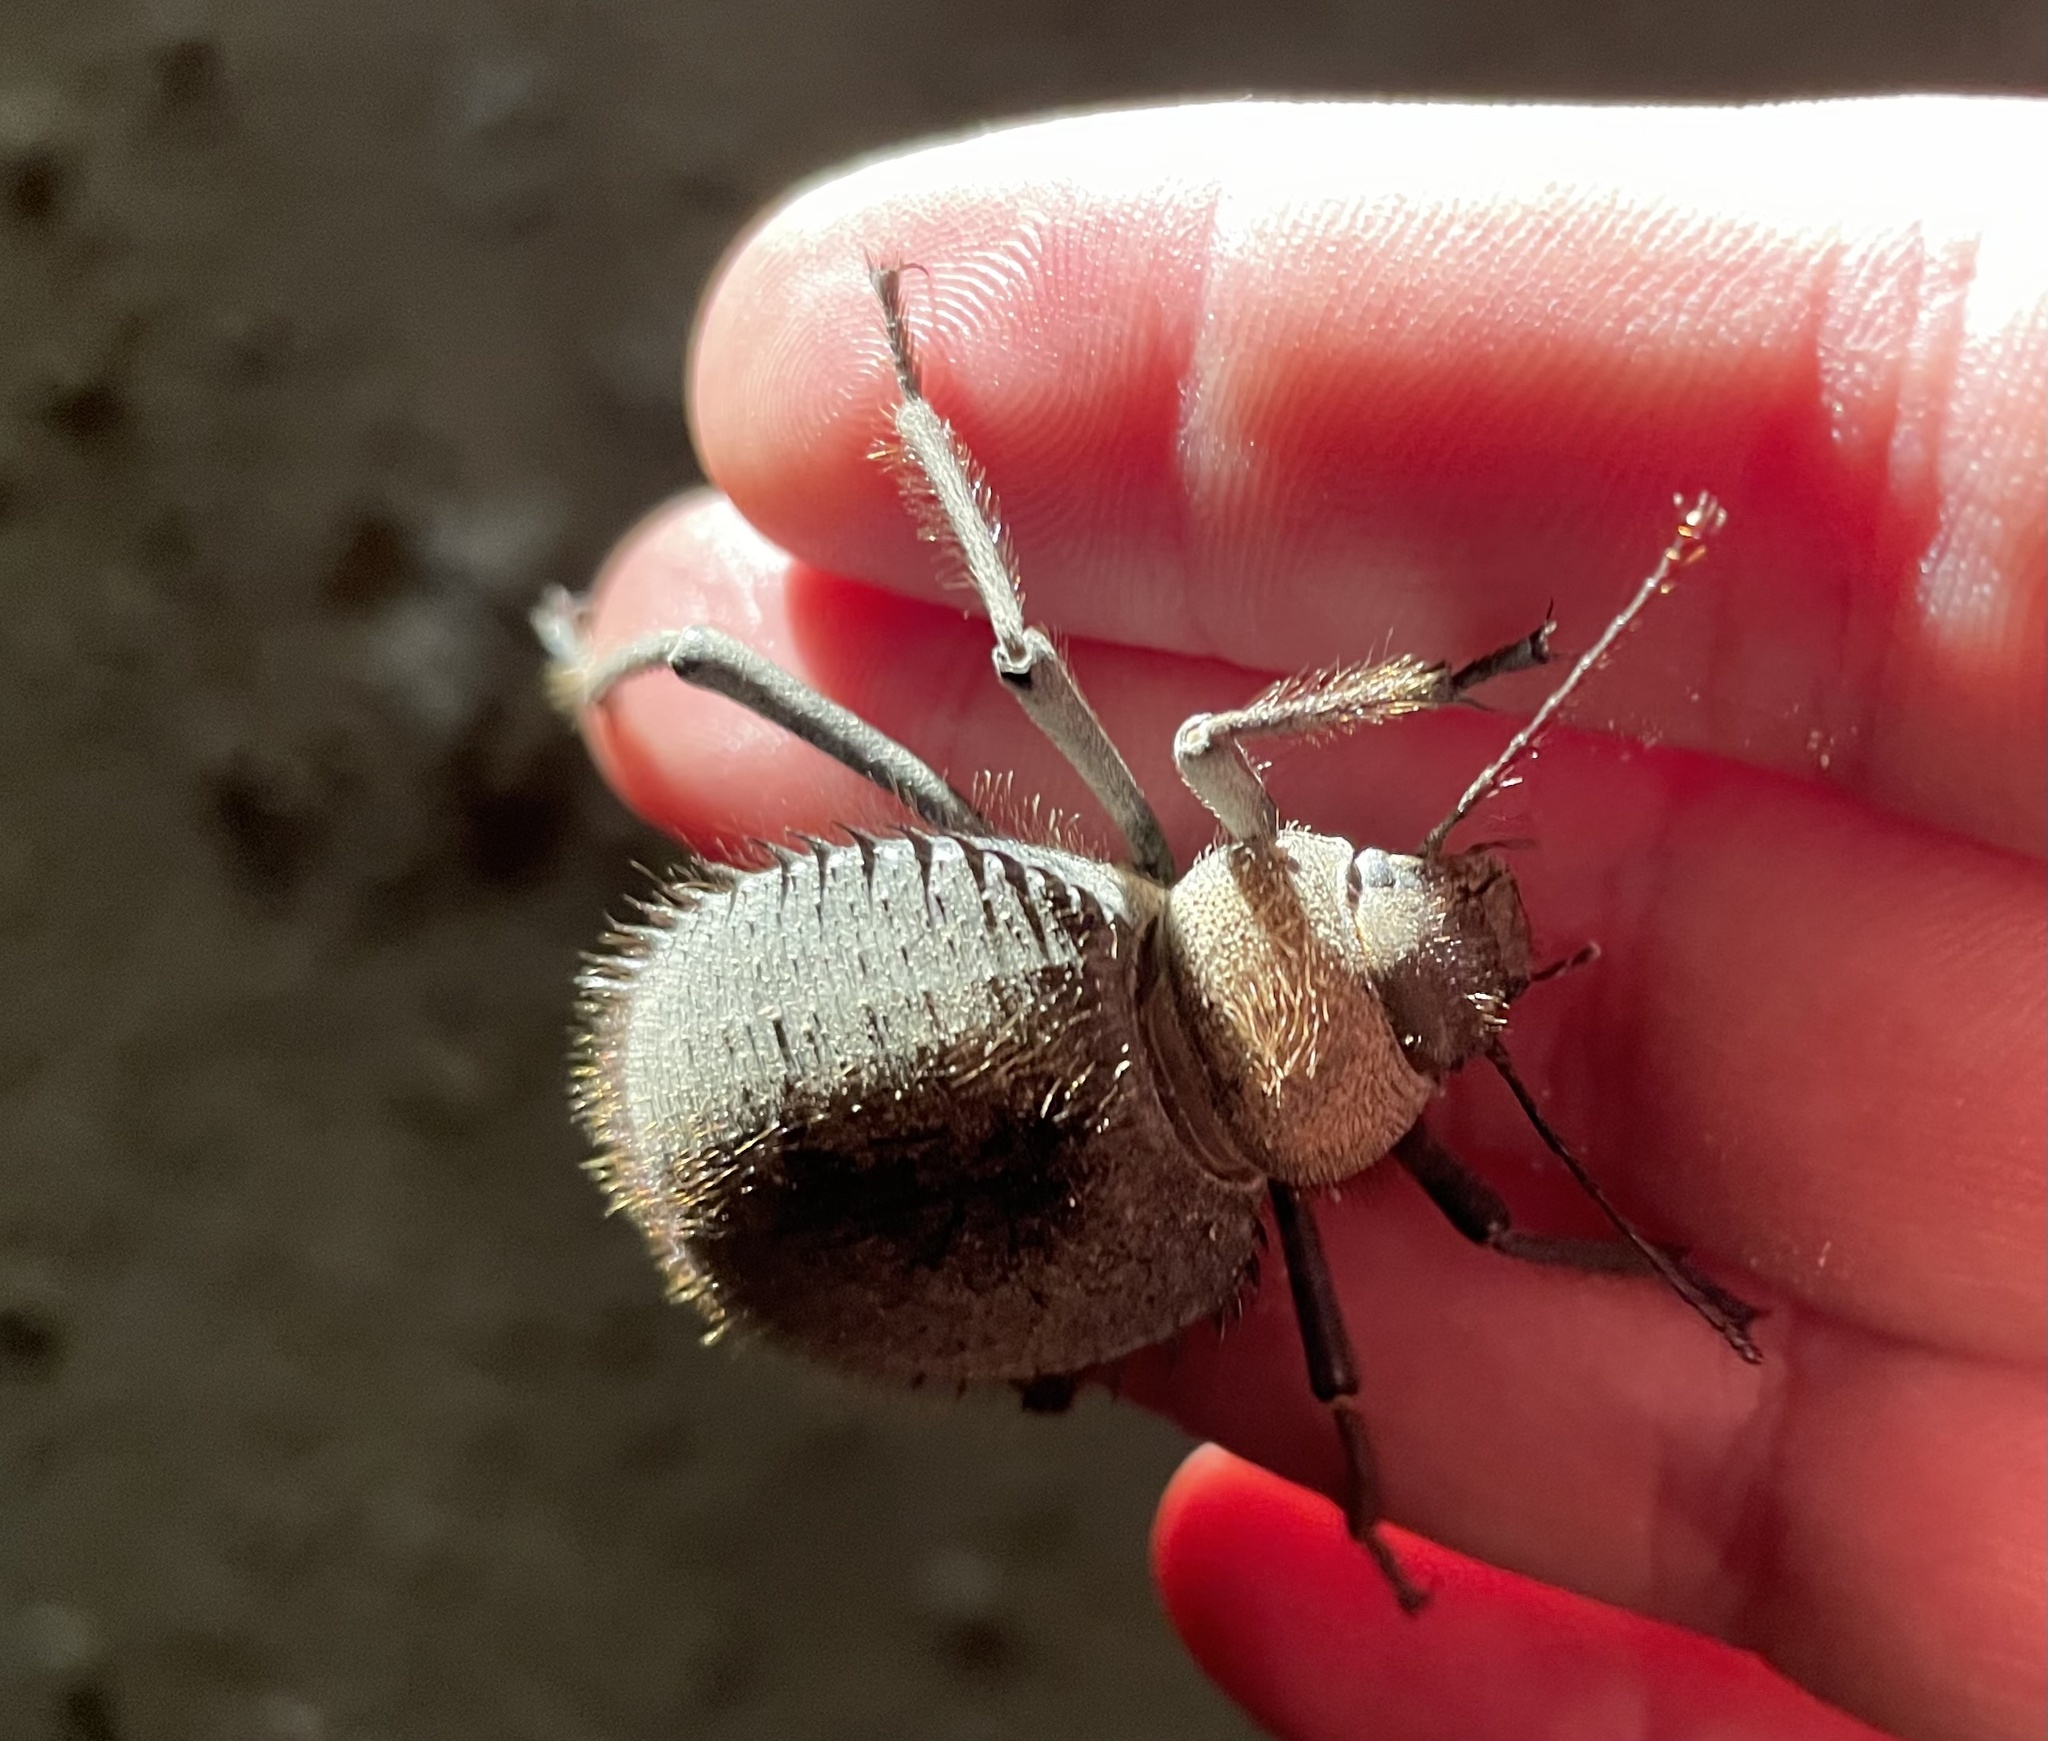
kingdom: Animalia
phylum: Arthropoda
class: Insecta
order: Coleoptera
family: Tenebrionidae
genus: Prionotheca
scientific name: Prionotheca coronata
